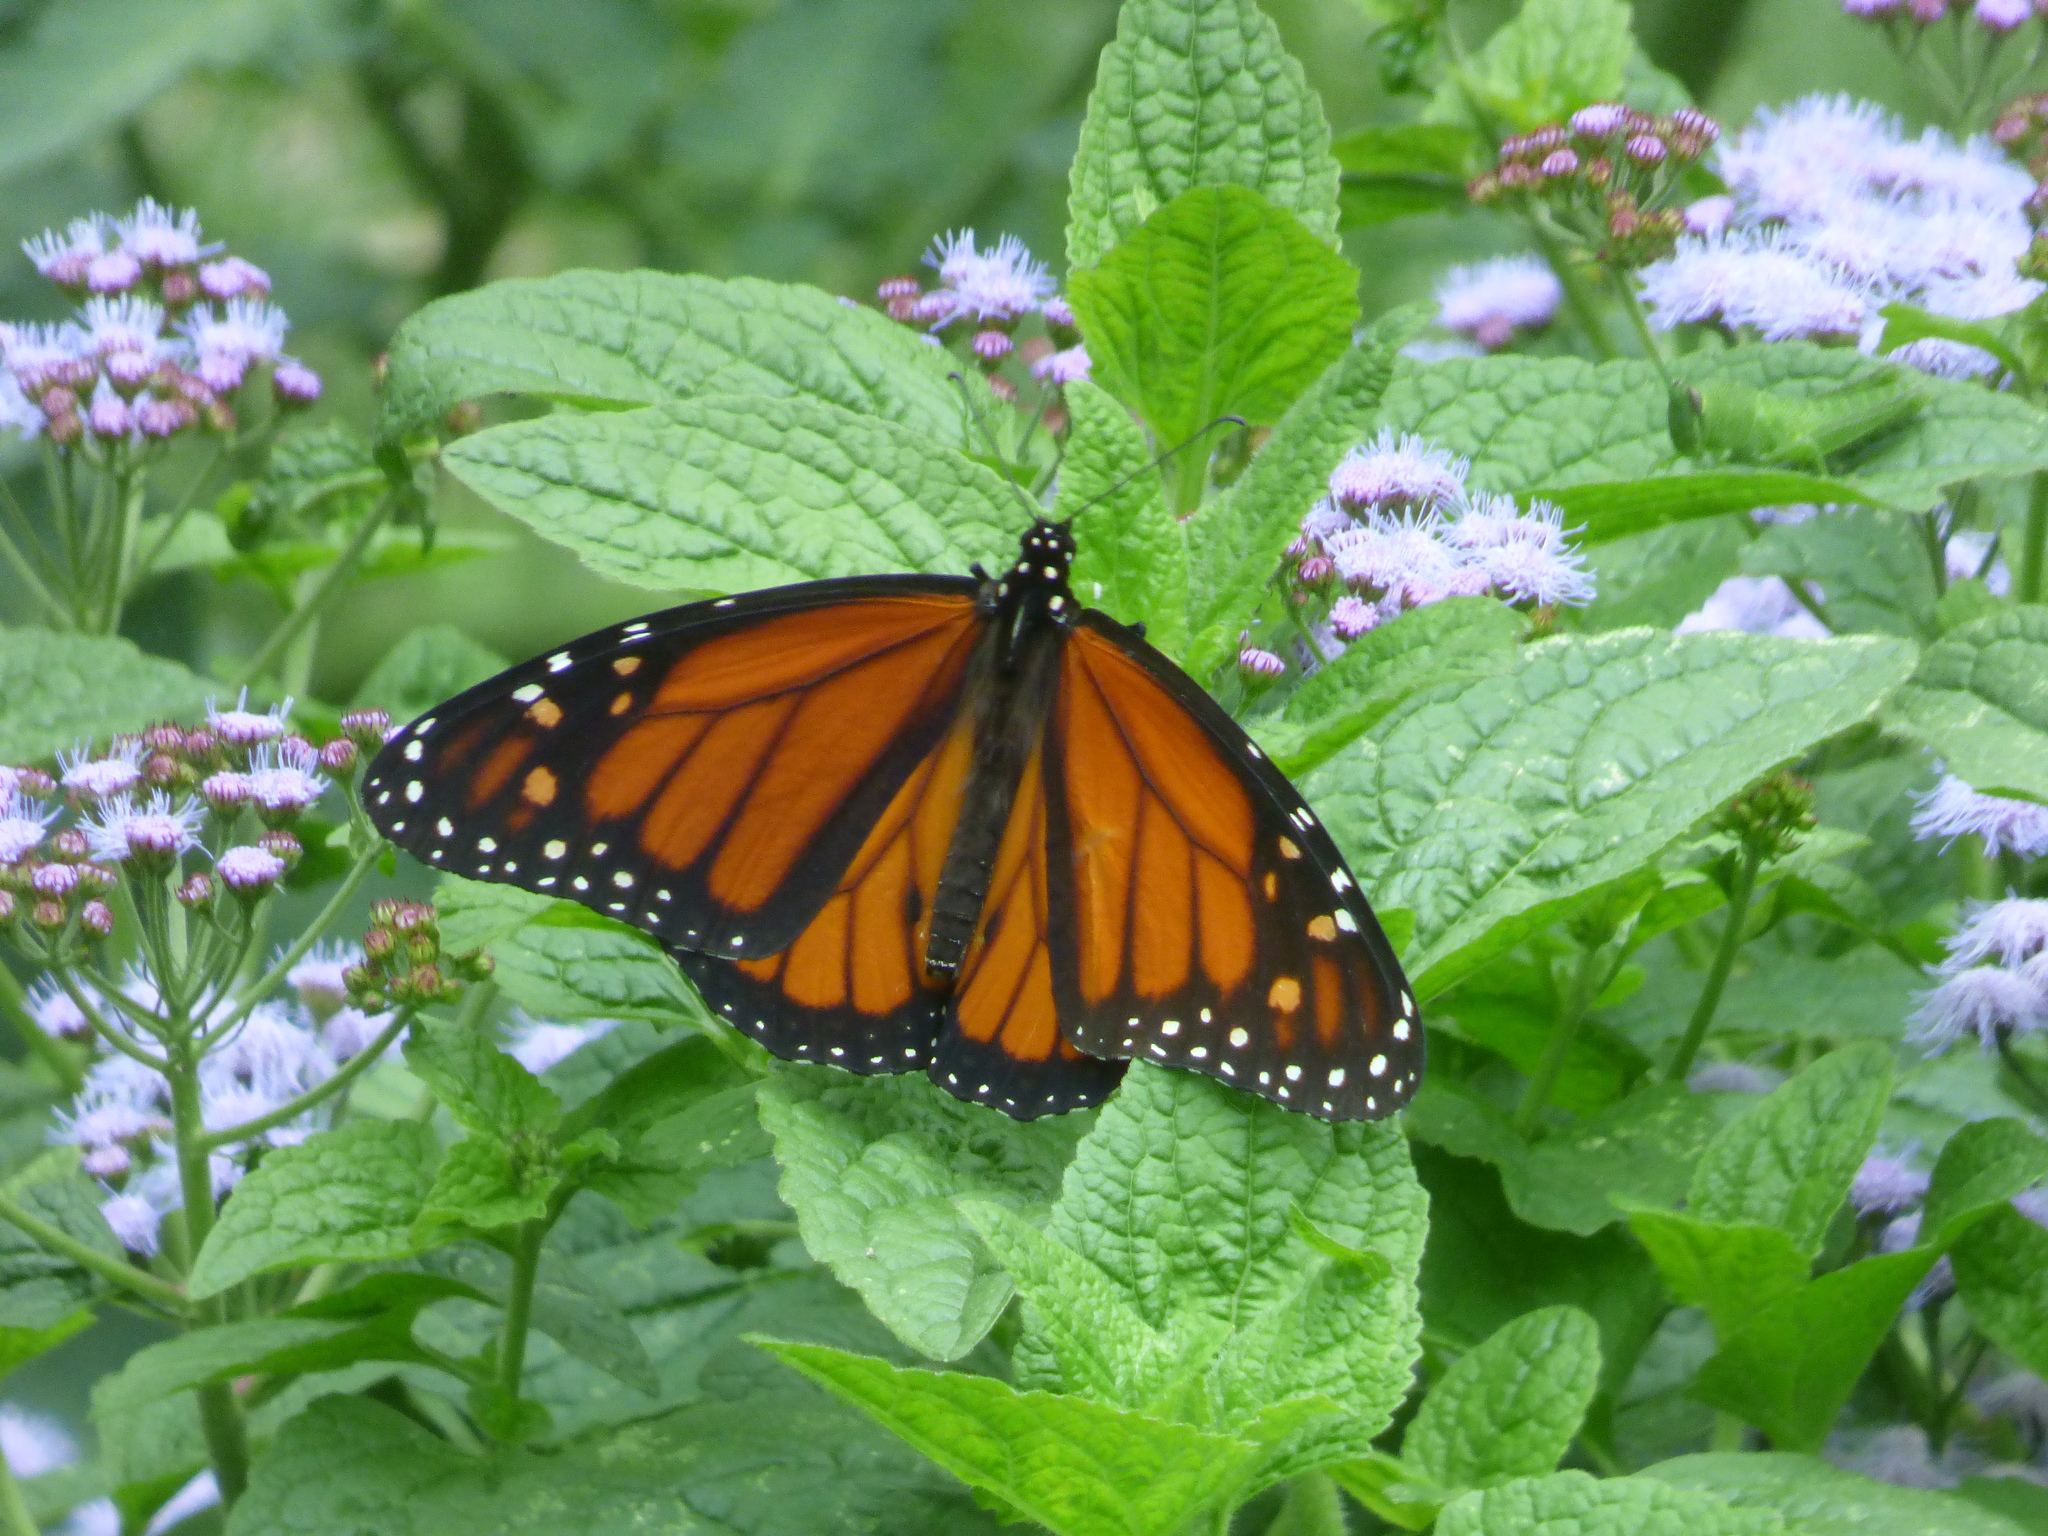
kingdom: Animalia
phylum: Arthropoda
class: Insecta
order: Lepidoptera
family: Nymphalidae
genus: Danaus
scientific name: Danaus plexippus
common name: Monarch
